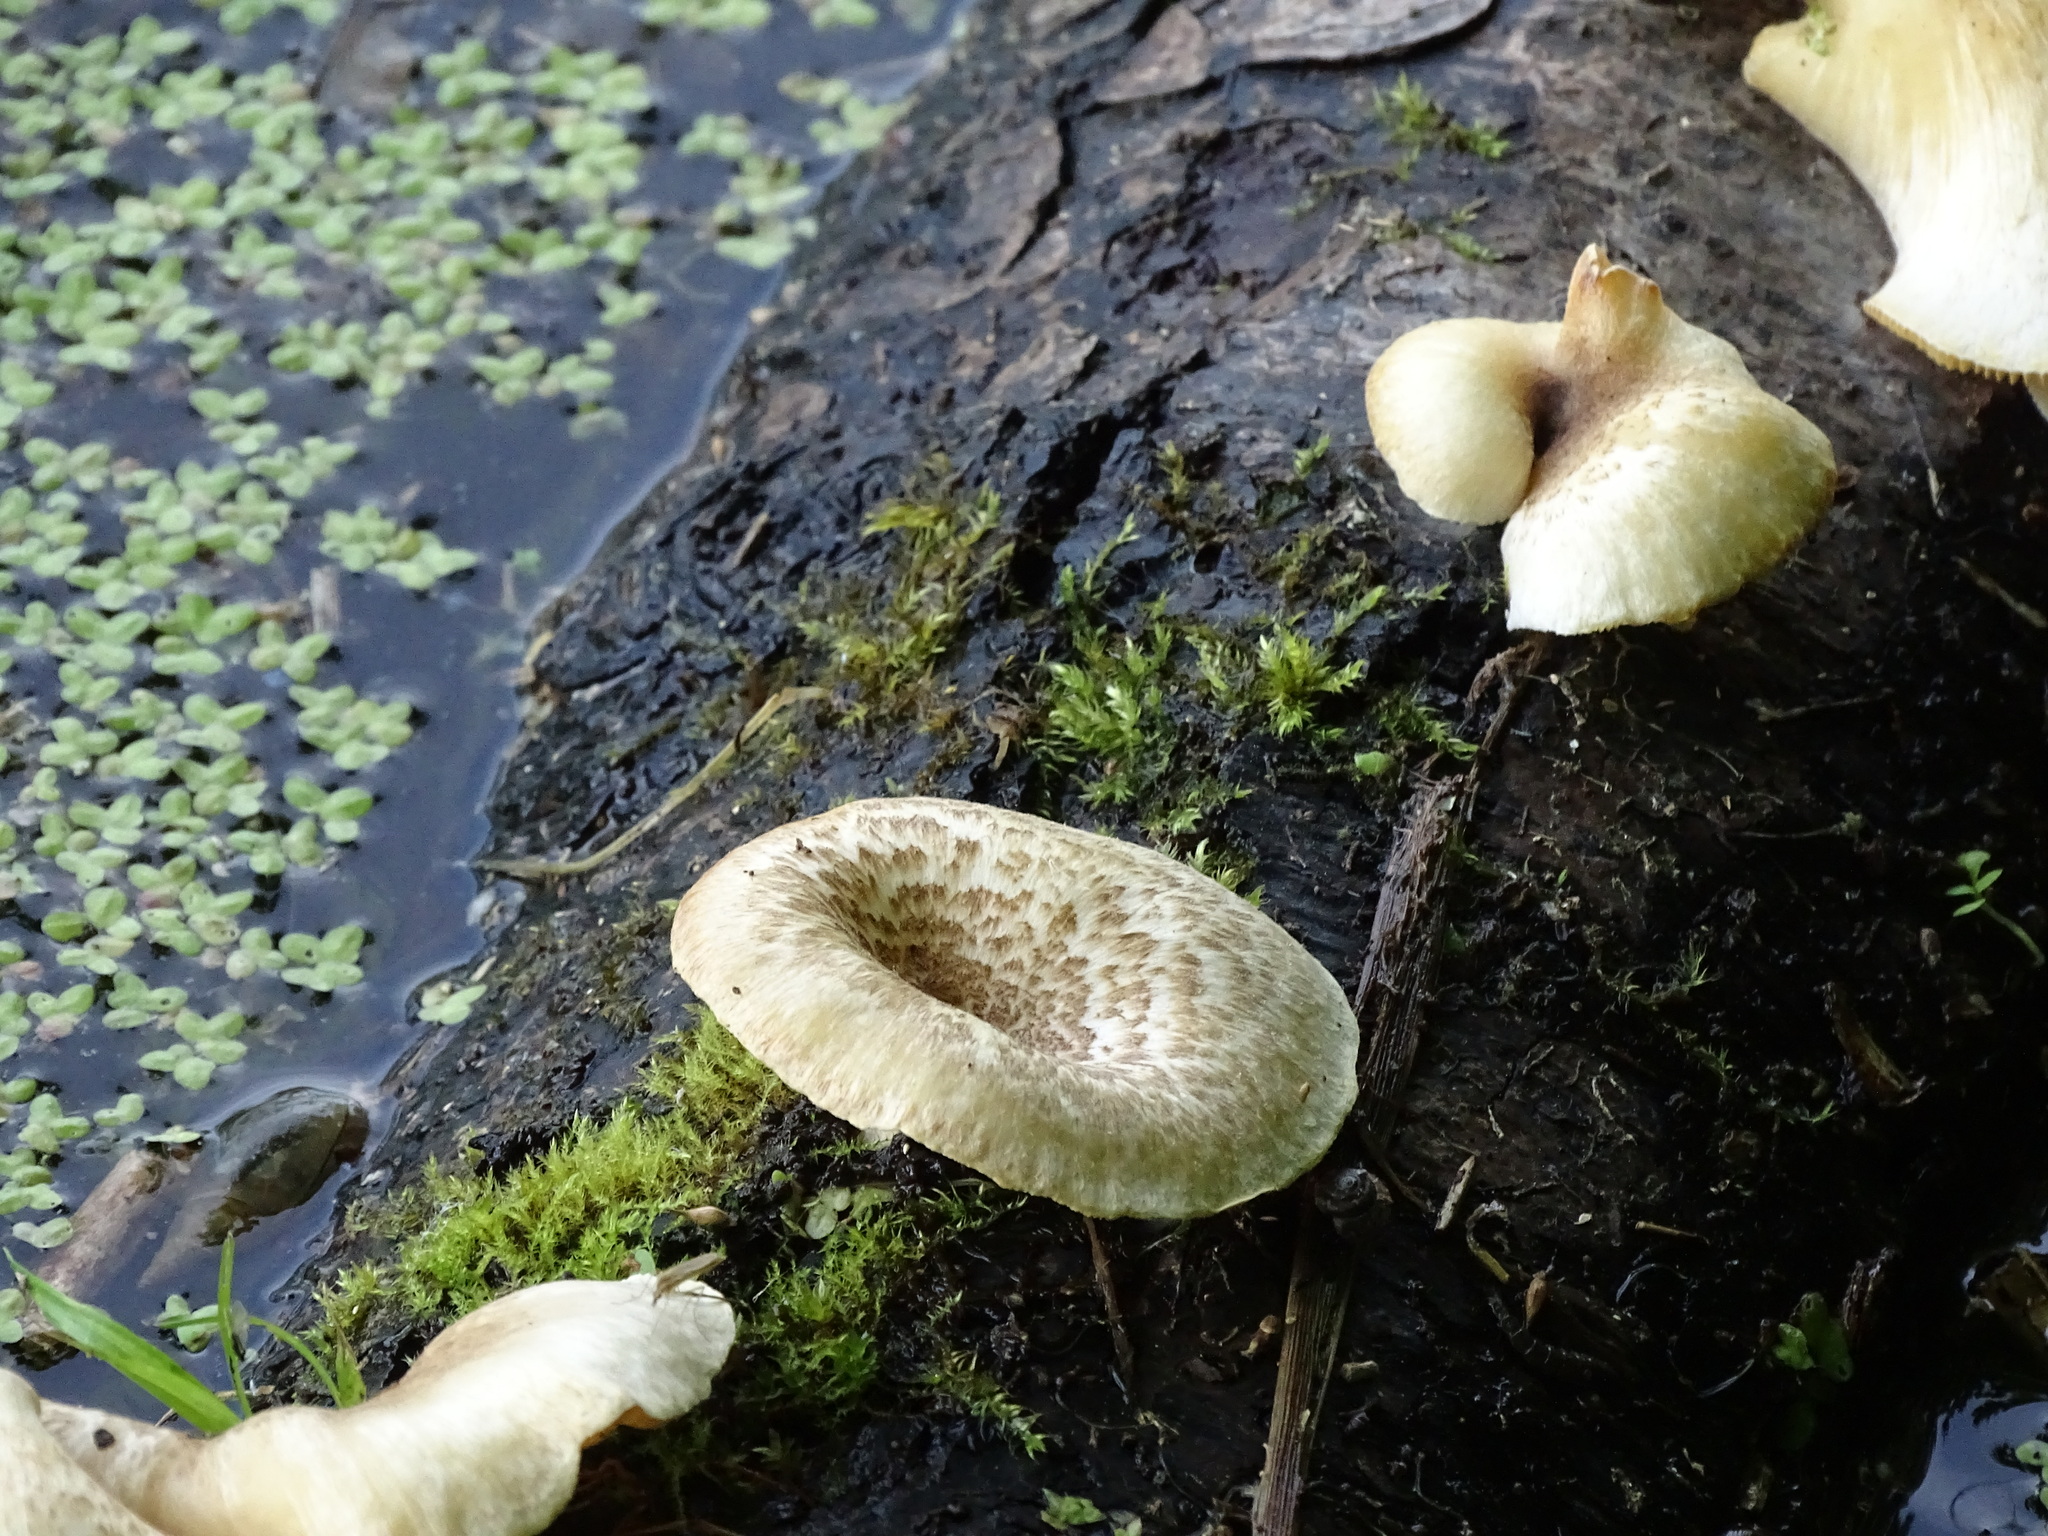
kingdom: Fungi
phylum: Basidiomycota
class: Agaricomycetes
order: Polyporales
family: Polyporaceae
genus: Lentinus
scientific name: Lentinus tigrinus
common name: Tiger sawgill
